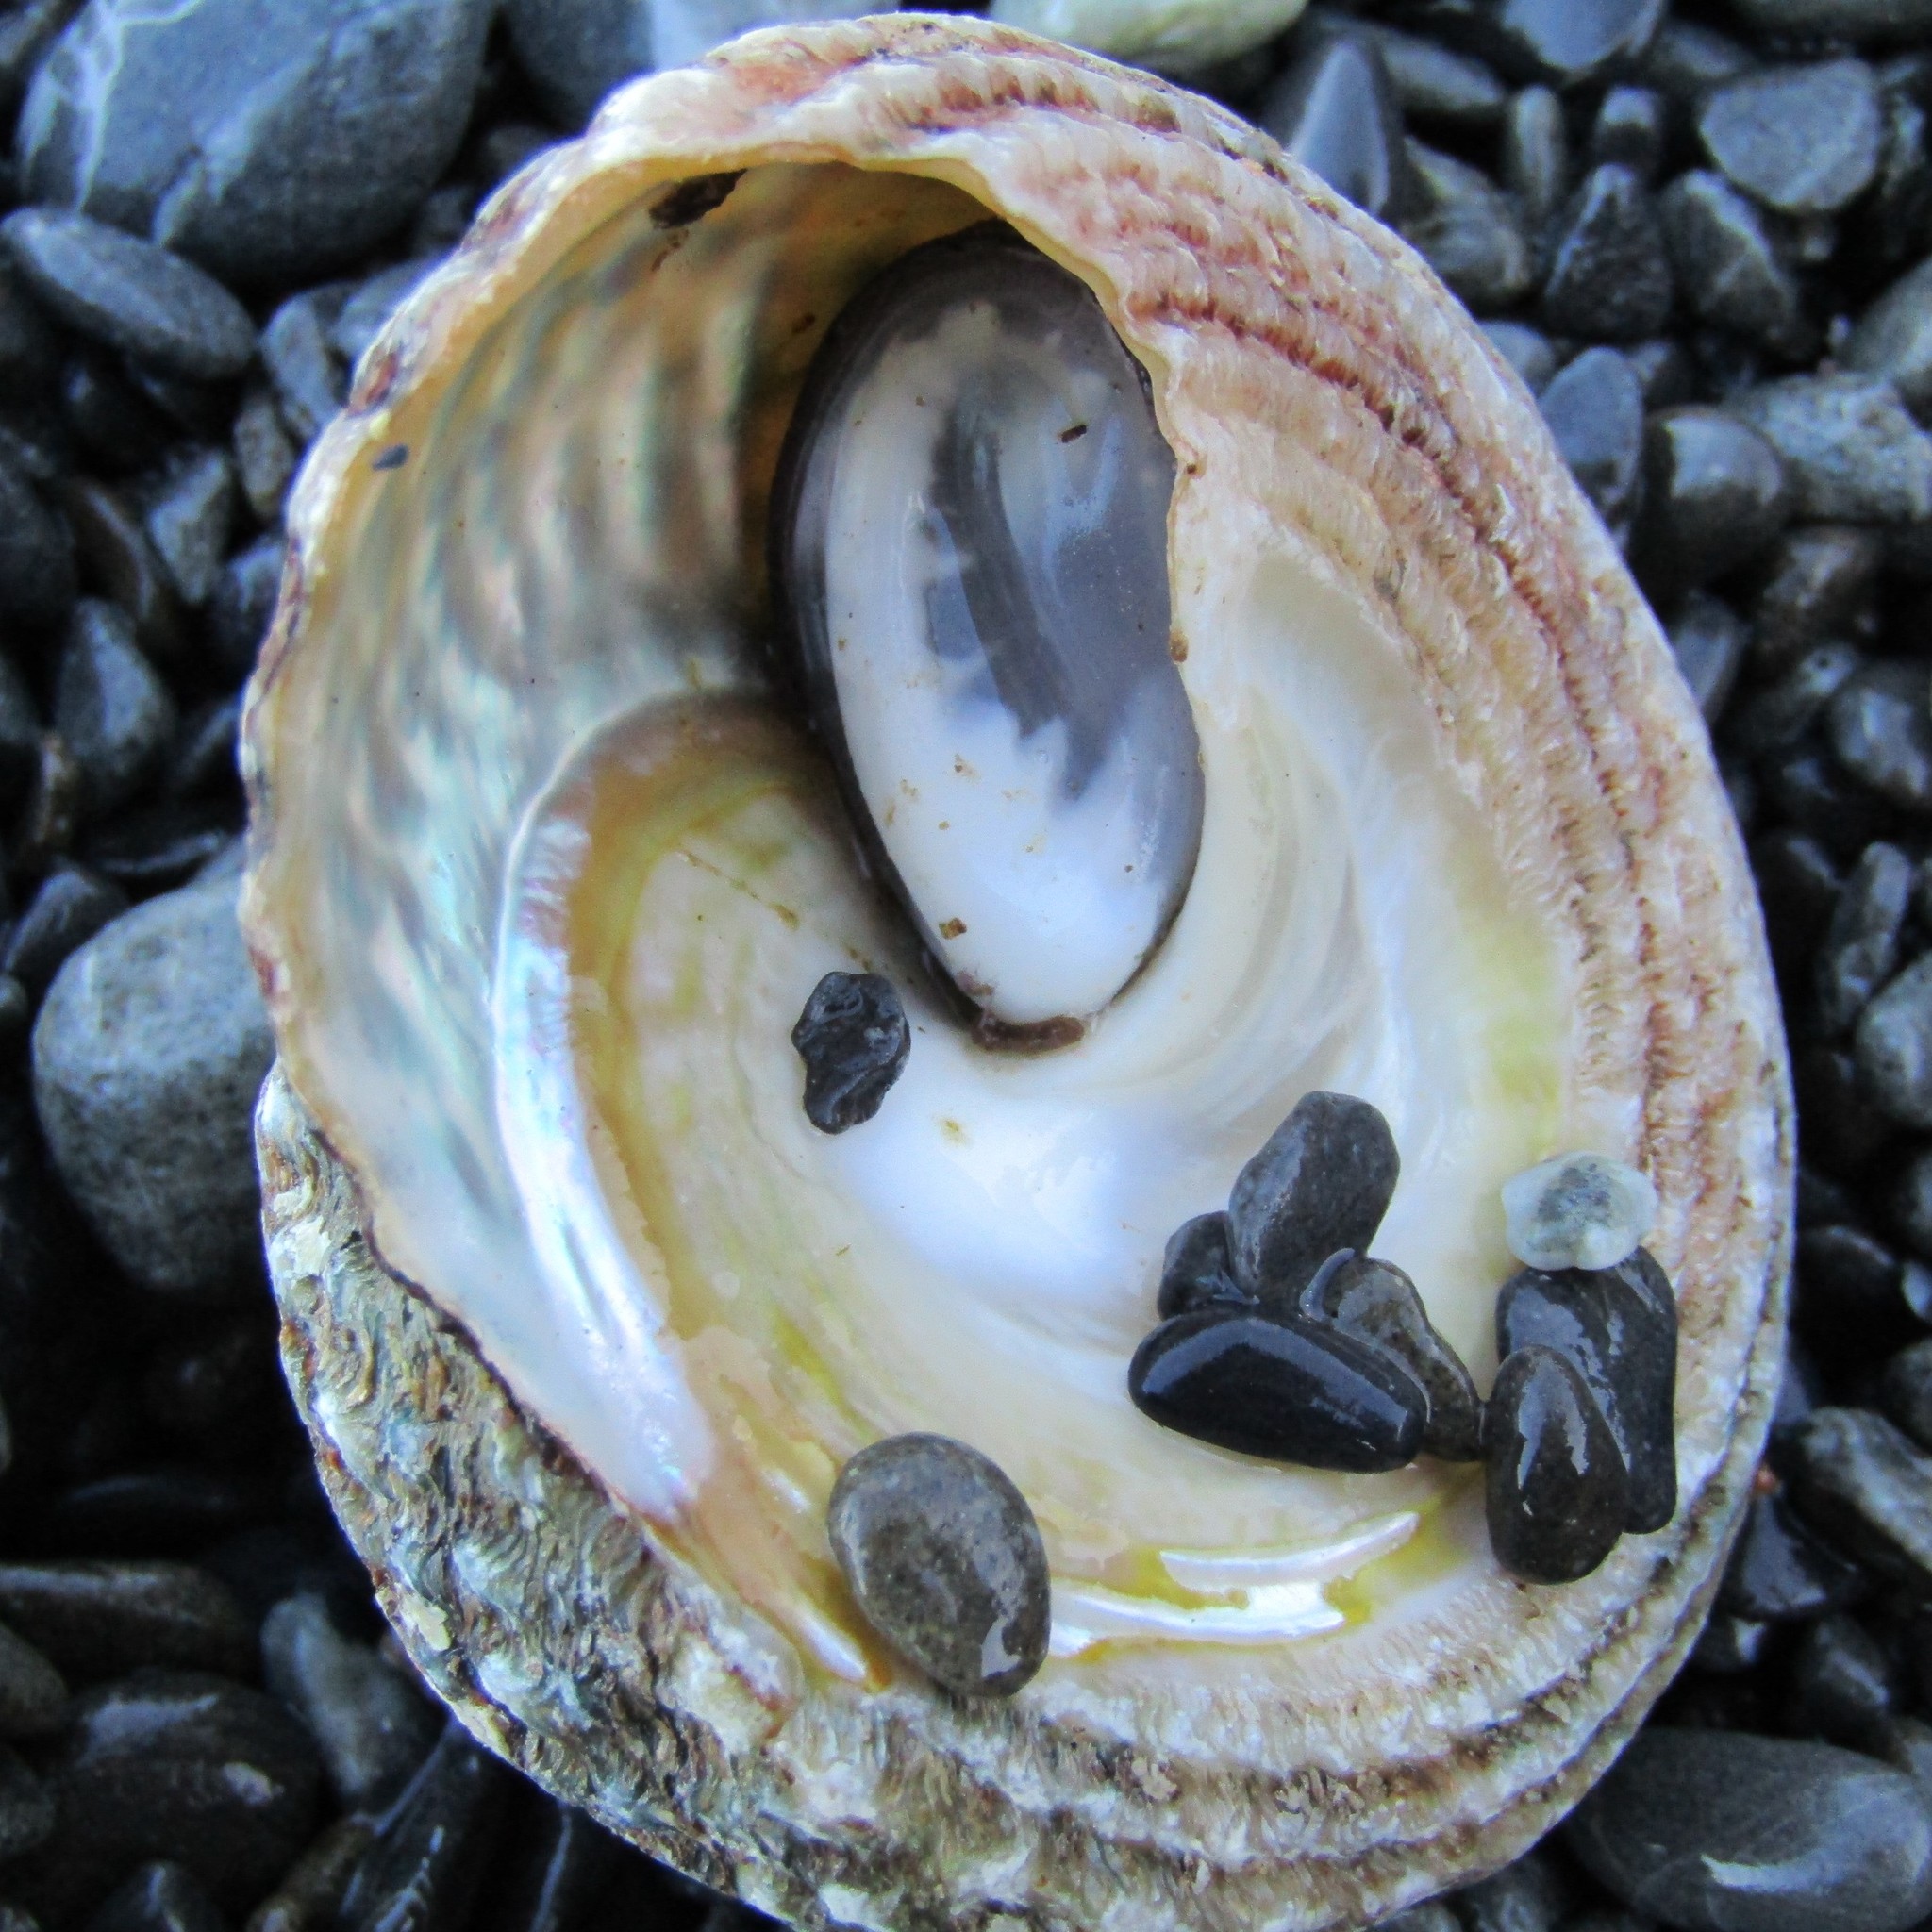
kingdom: Animalia
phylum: Mollusca
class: Gastropoda
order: Trochida
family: Turbinidae
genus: Cookia
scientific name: Cookia sulcata
